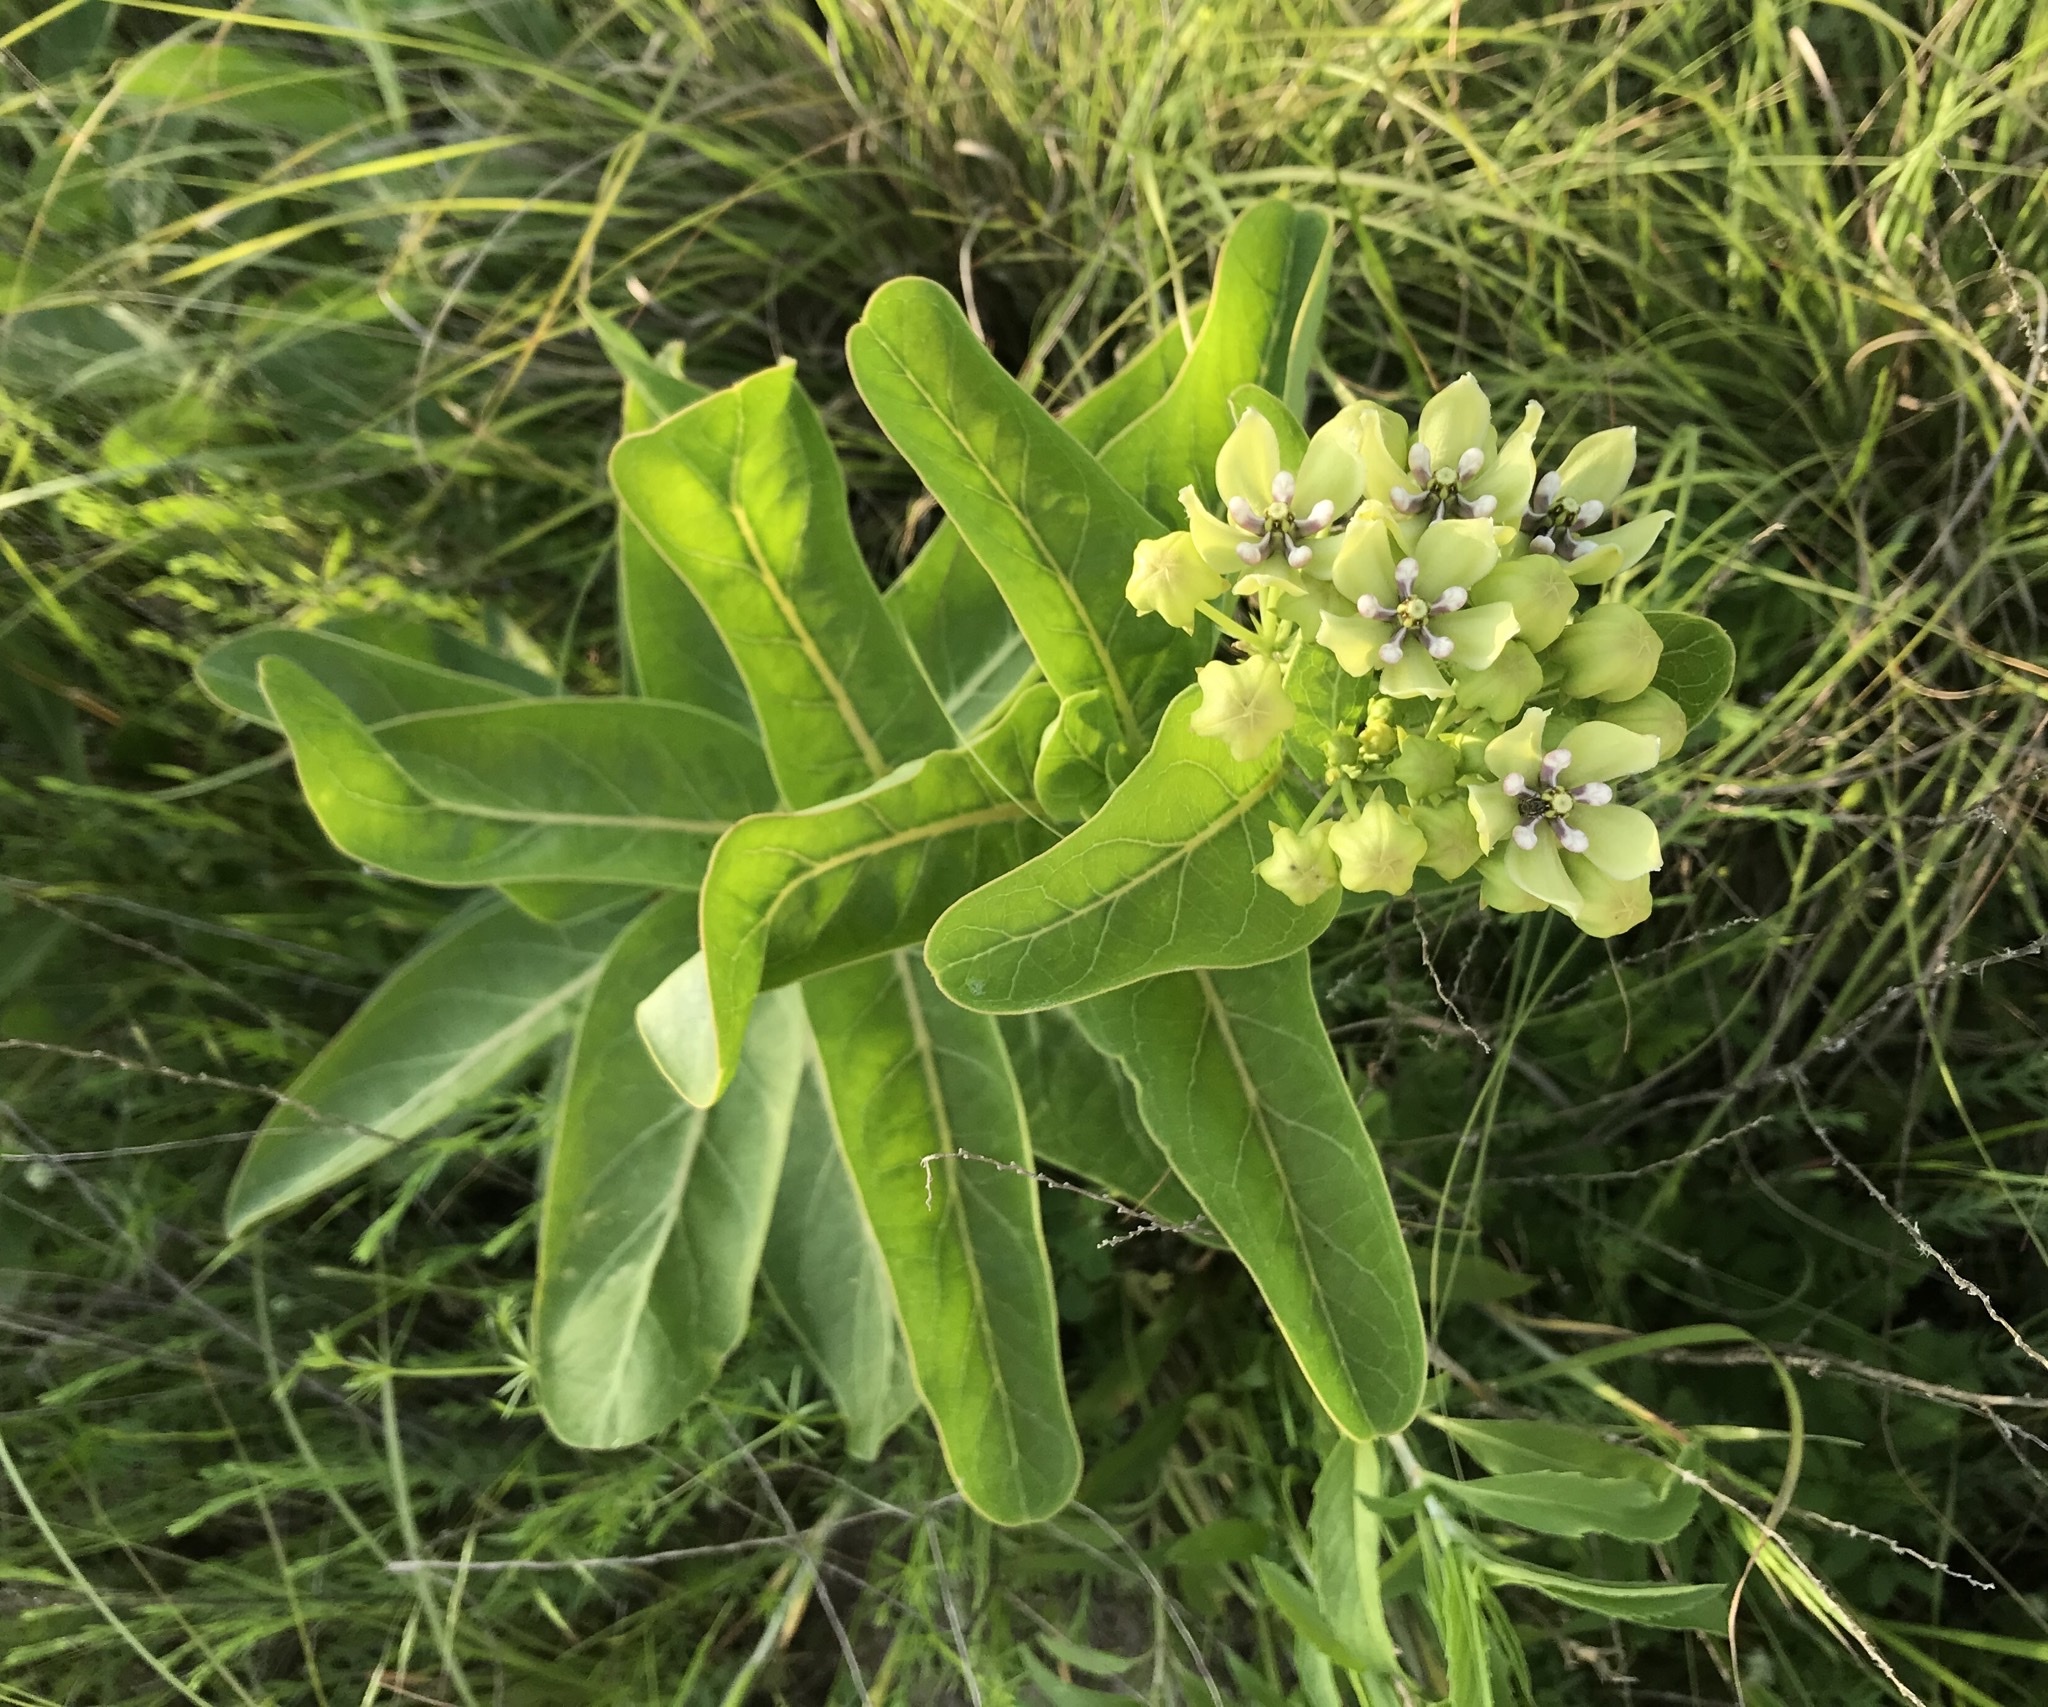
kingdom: Plantae
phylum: Tracheophyta
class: Magnoliopsida
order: Gentianales
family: Apocynaceae
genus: Asclepias
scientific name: Asclepias viridis
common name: Antelope-horns
